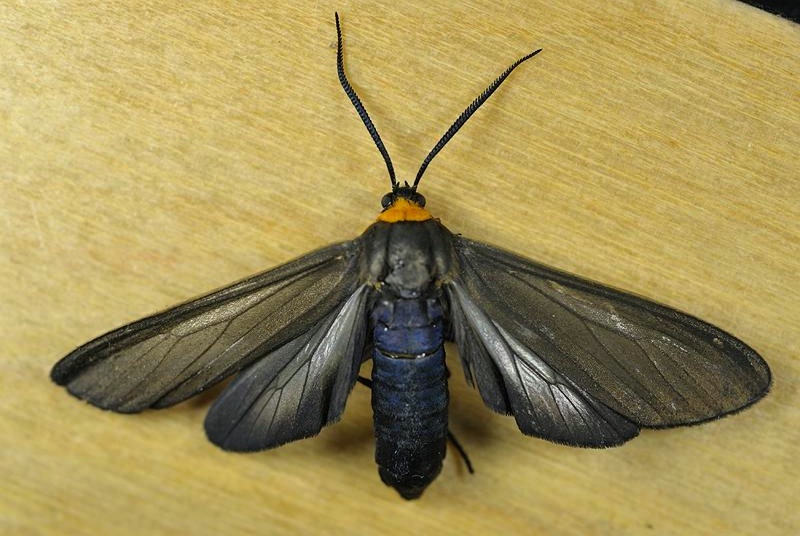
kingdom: Animalia
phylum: Arthropoda
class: Insecta
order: Lepidoptera
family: Erebidae
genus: Cisseps
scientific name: Cisseps fulvicollis
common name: Yellow-collared scape moth
